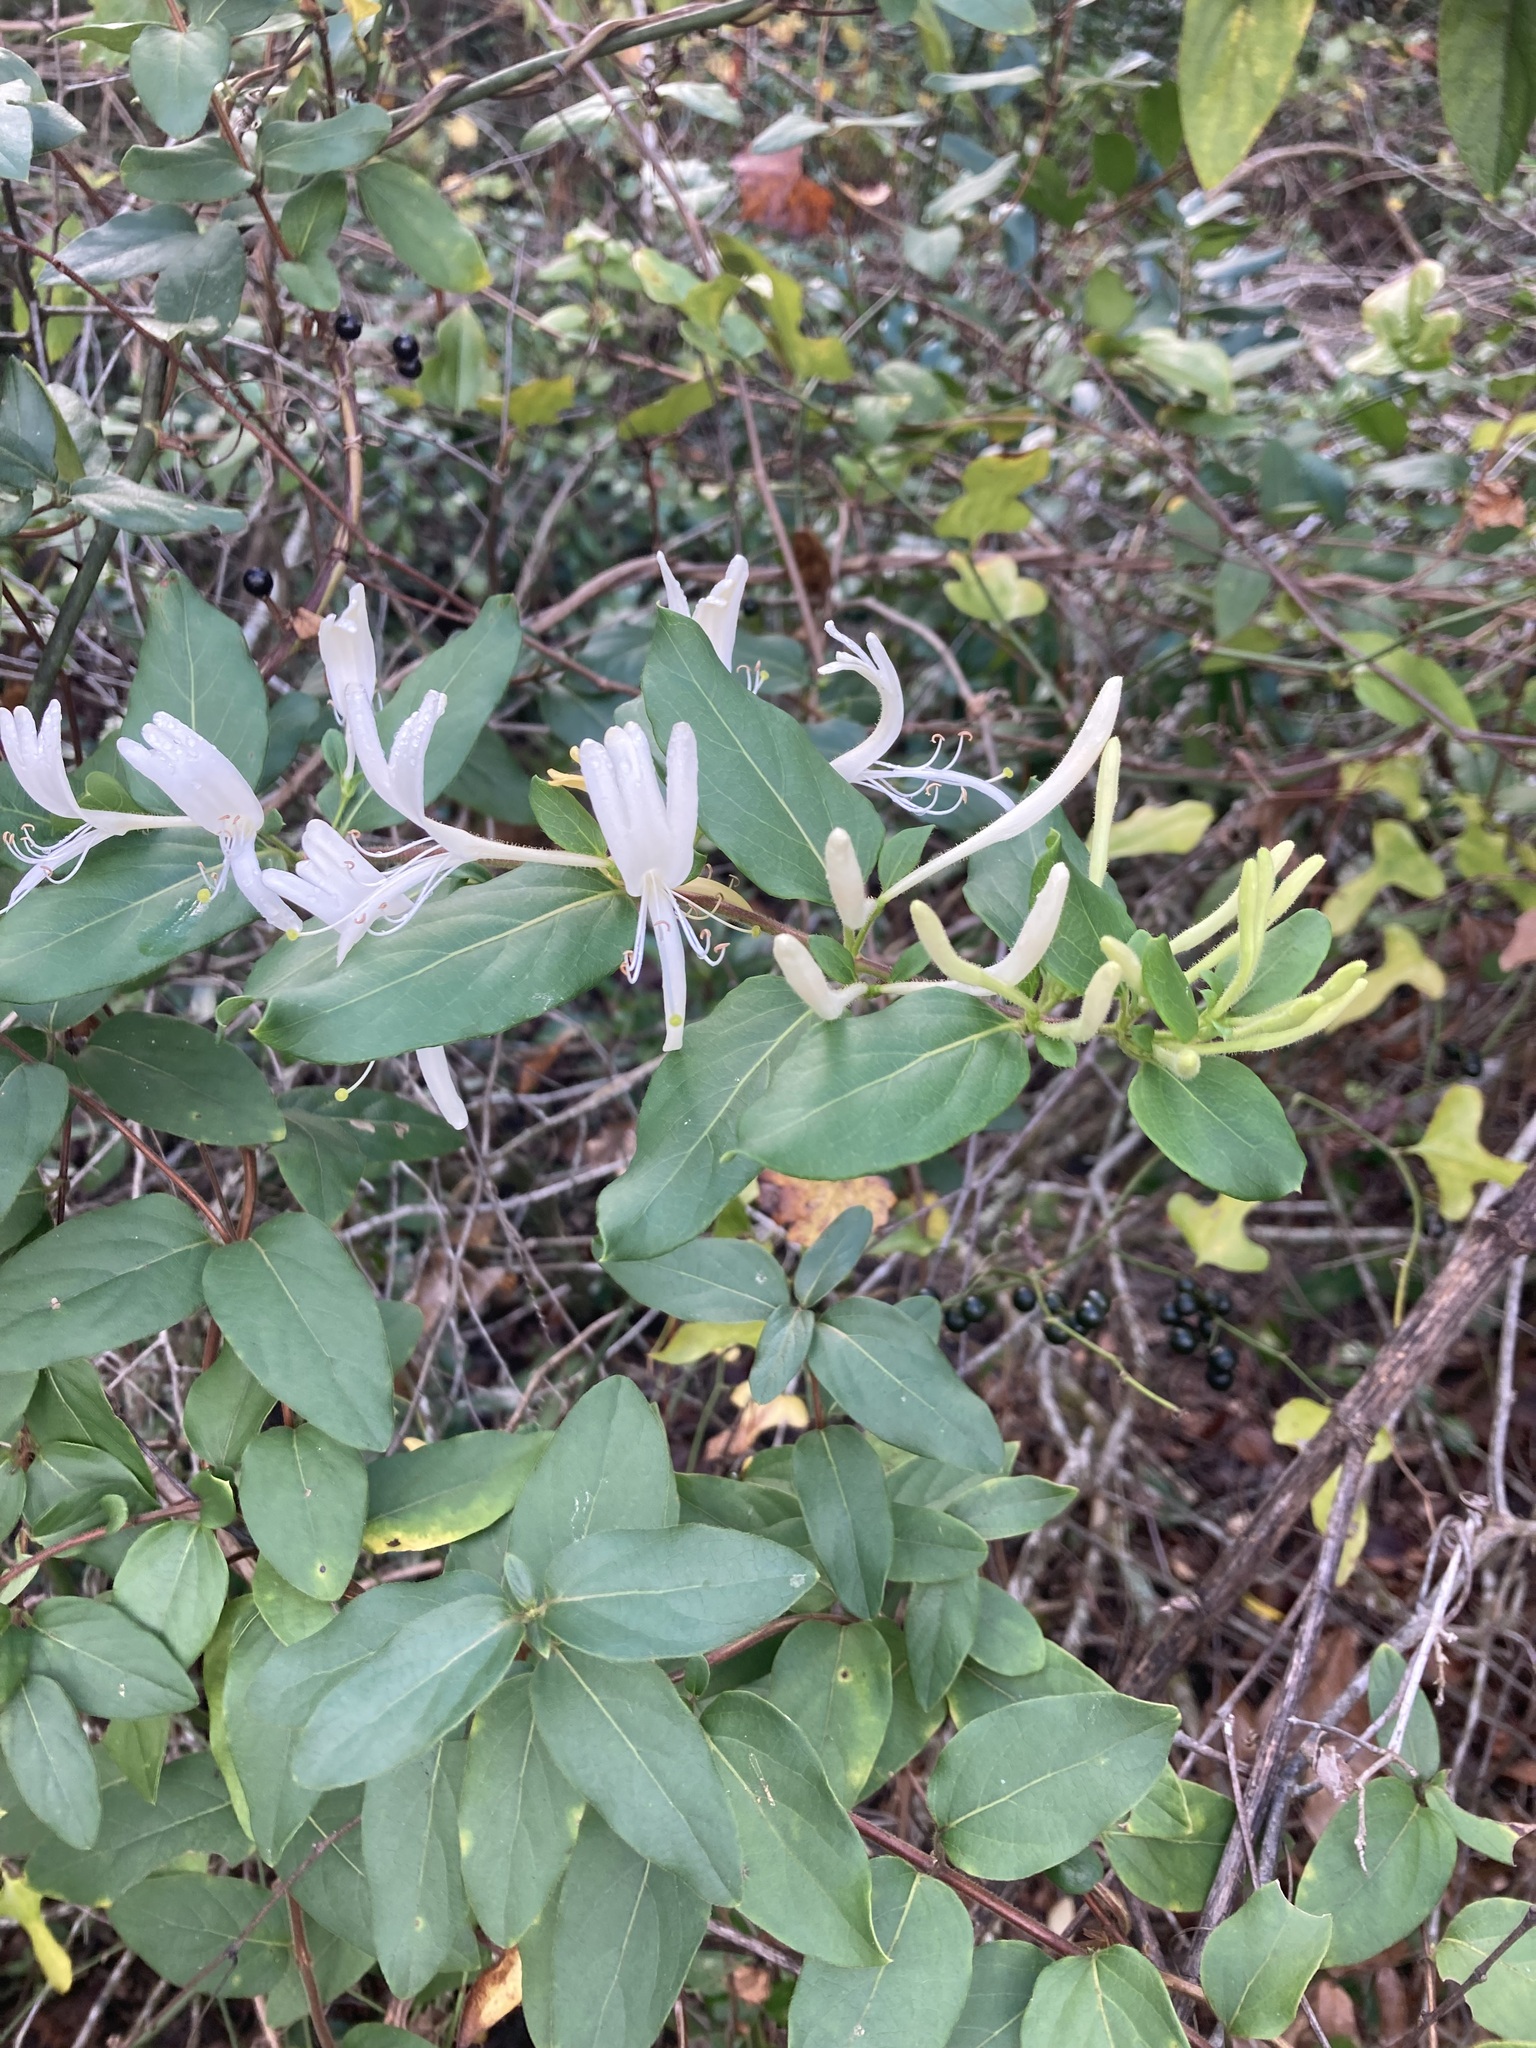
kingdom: Plantae
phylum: Tracheophyta
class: Magnoliopsida
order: Dipsacales
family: Caprifoliaceae
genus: Lonicera
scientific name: Lonicera japonica
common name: Japanese honeysuckle
